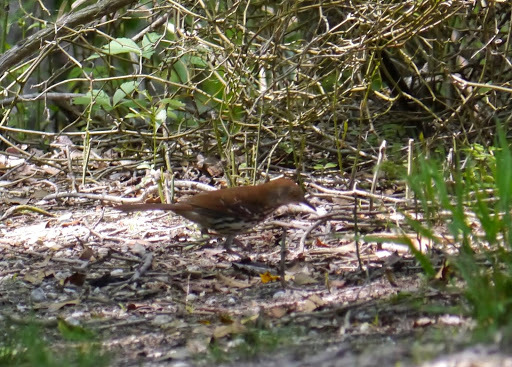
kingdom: Animalia
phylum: Chordata
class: Aves
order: Passeriformes
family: Mimidae
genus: Toxostoma
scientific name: Toxostoma rufum
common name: Brown thrasher
